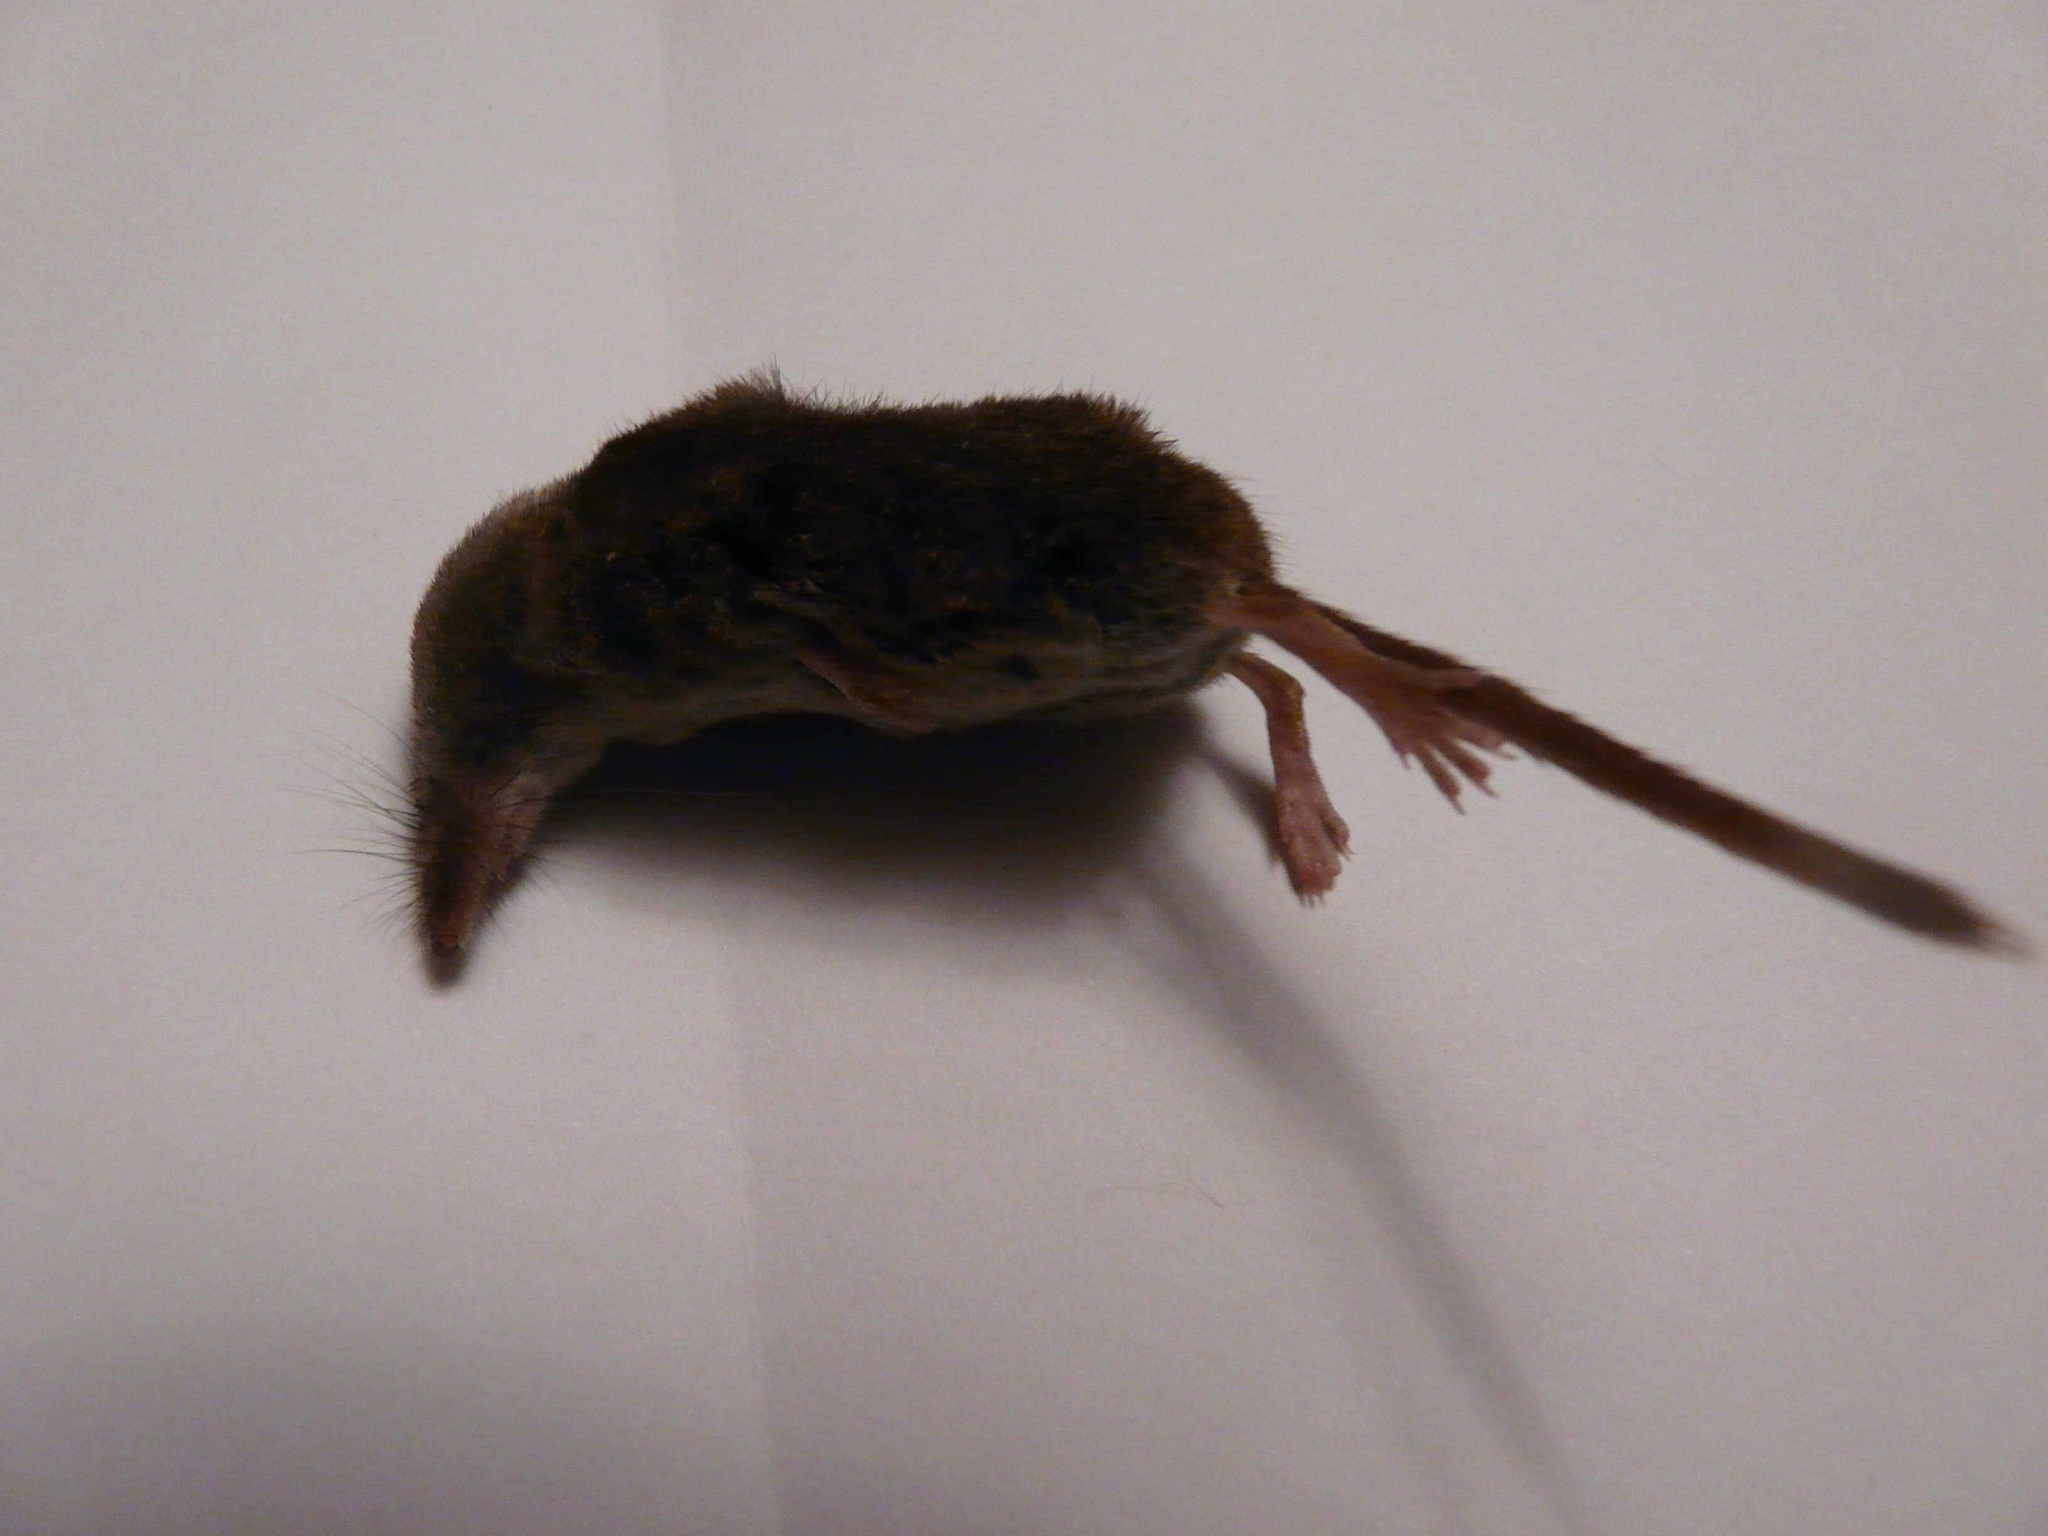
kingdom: Animalia
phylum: Chordata
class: Mammalia
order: Soricomorpha
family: Soricidae
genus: Sorex
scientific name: Sorex minutus
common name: Eurasian pygmy shrew
